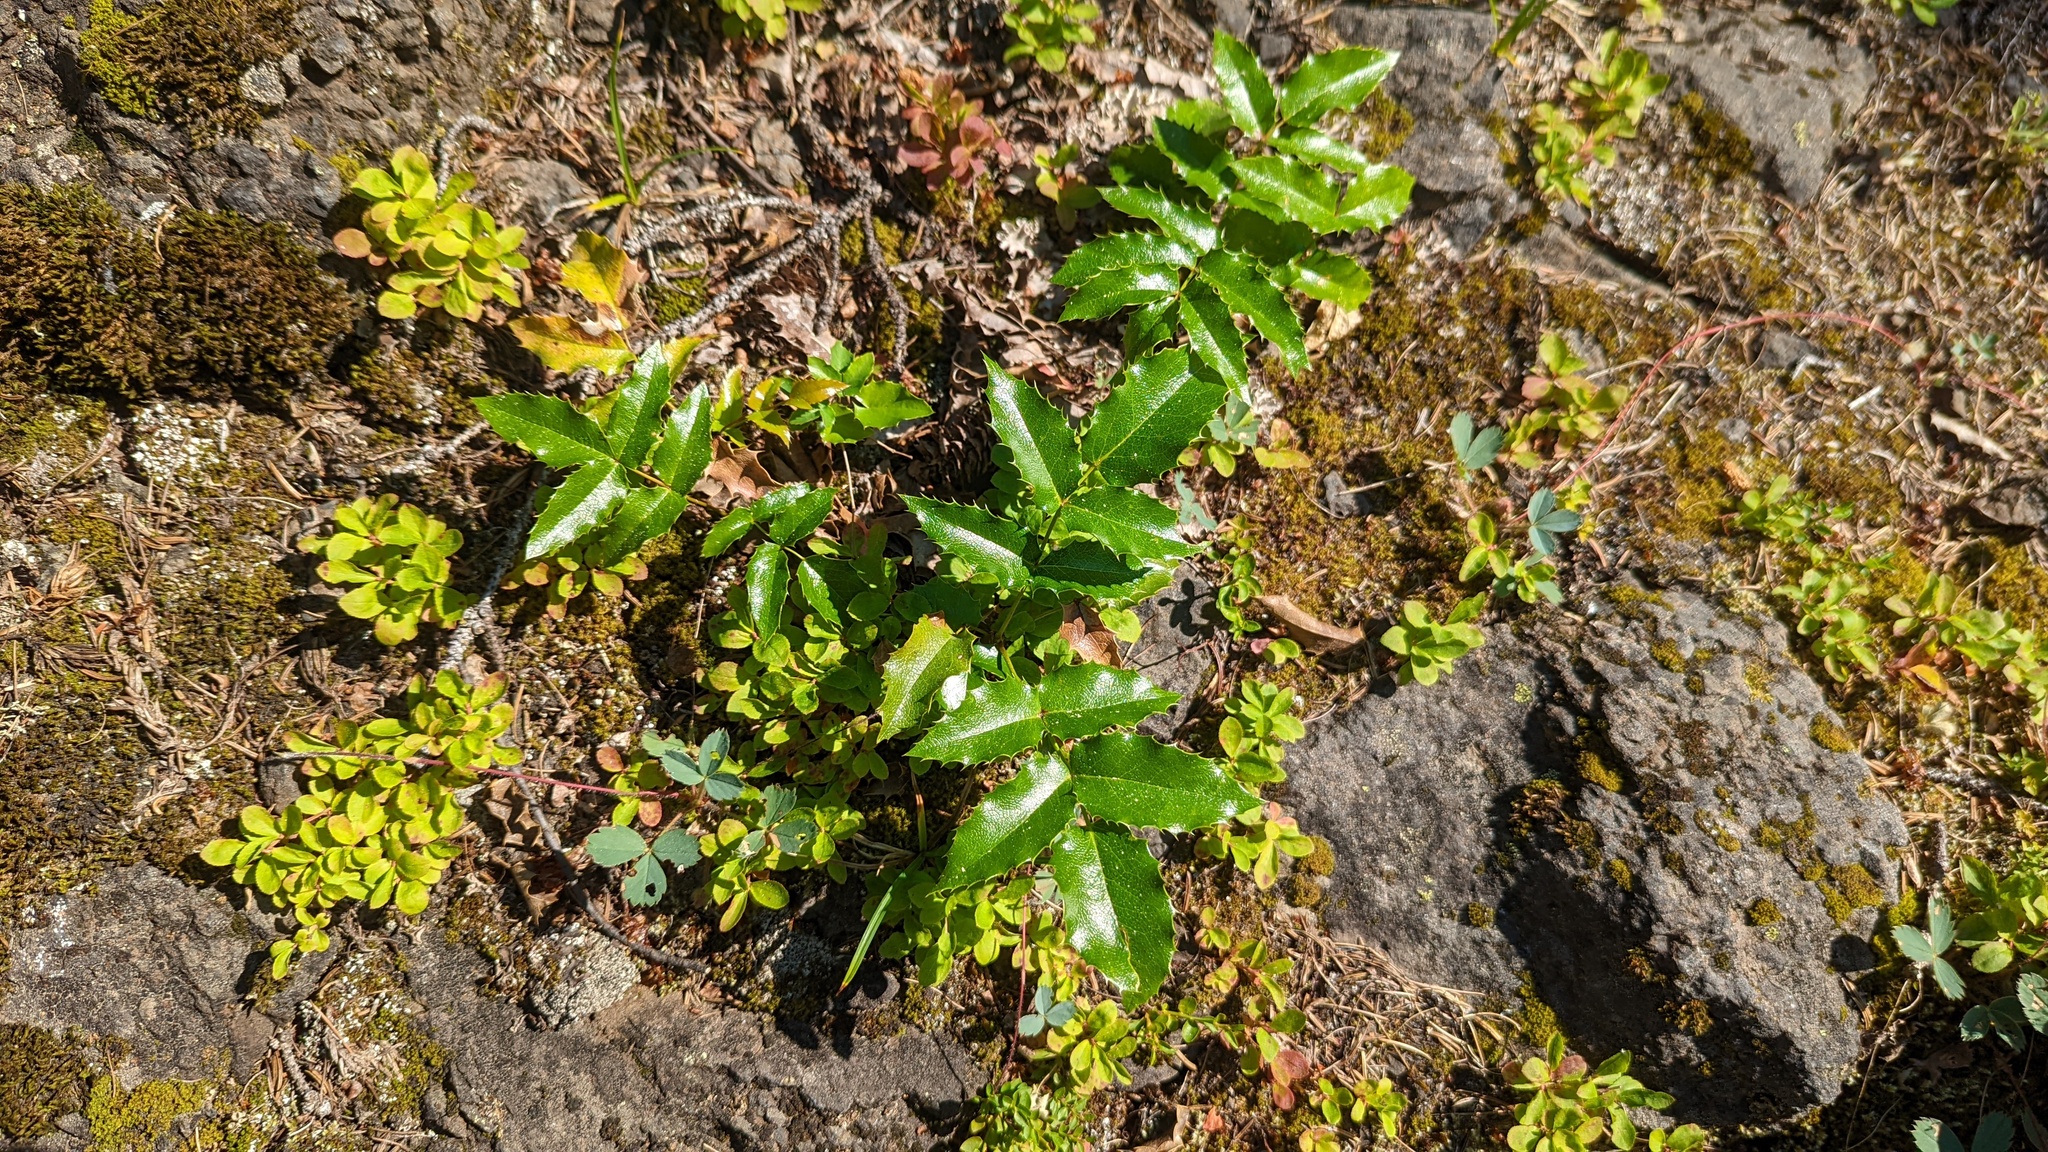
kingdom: Plantae
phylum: Tracheophyta
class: Magnoliopsida
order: Ranunculales
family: Berberidaceae
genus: Mahonia
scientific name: Mahonia aquifolium
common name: Oregon-grape
